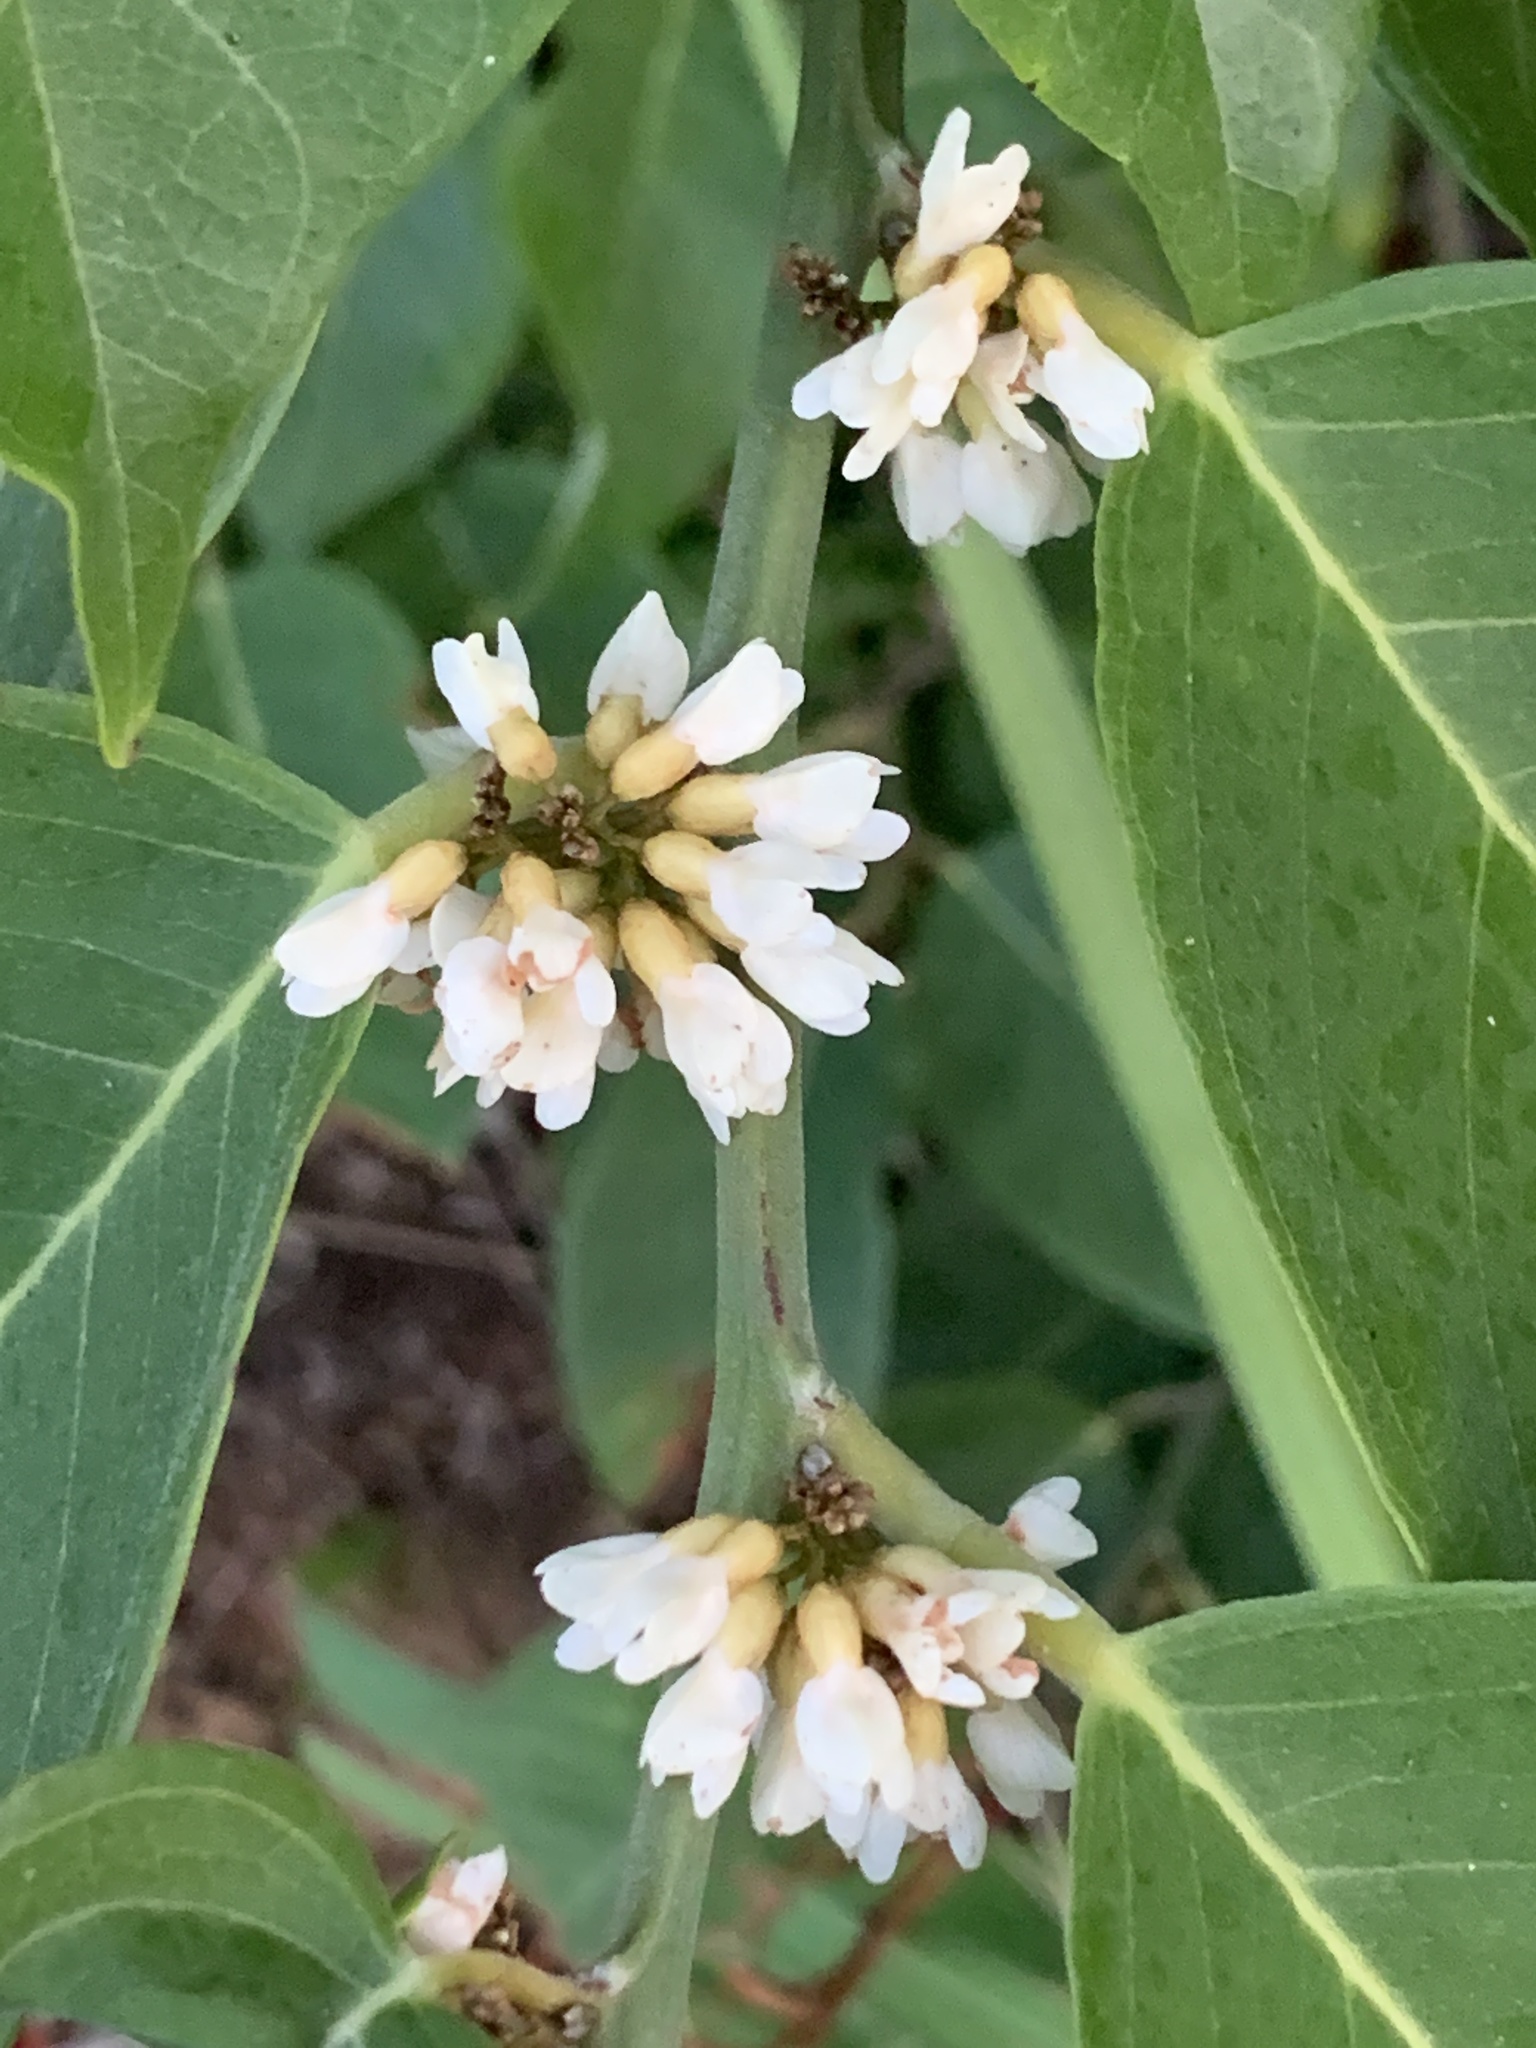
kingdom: Plantae
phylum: Tracheophyta
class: Magnoliopsida
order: Fabales
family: Fabaceae
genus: Dalbergia
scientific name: Dalbergia ecastaphyllum
